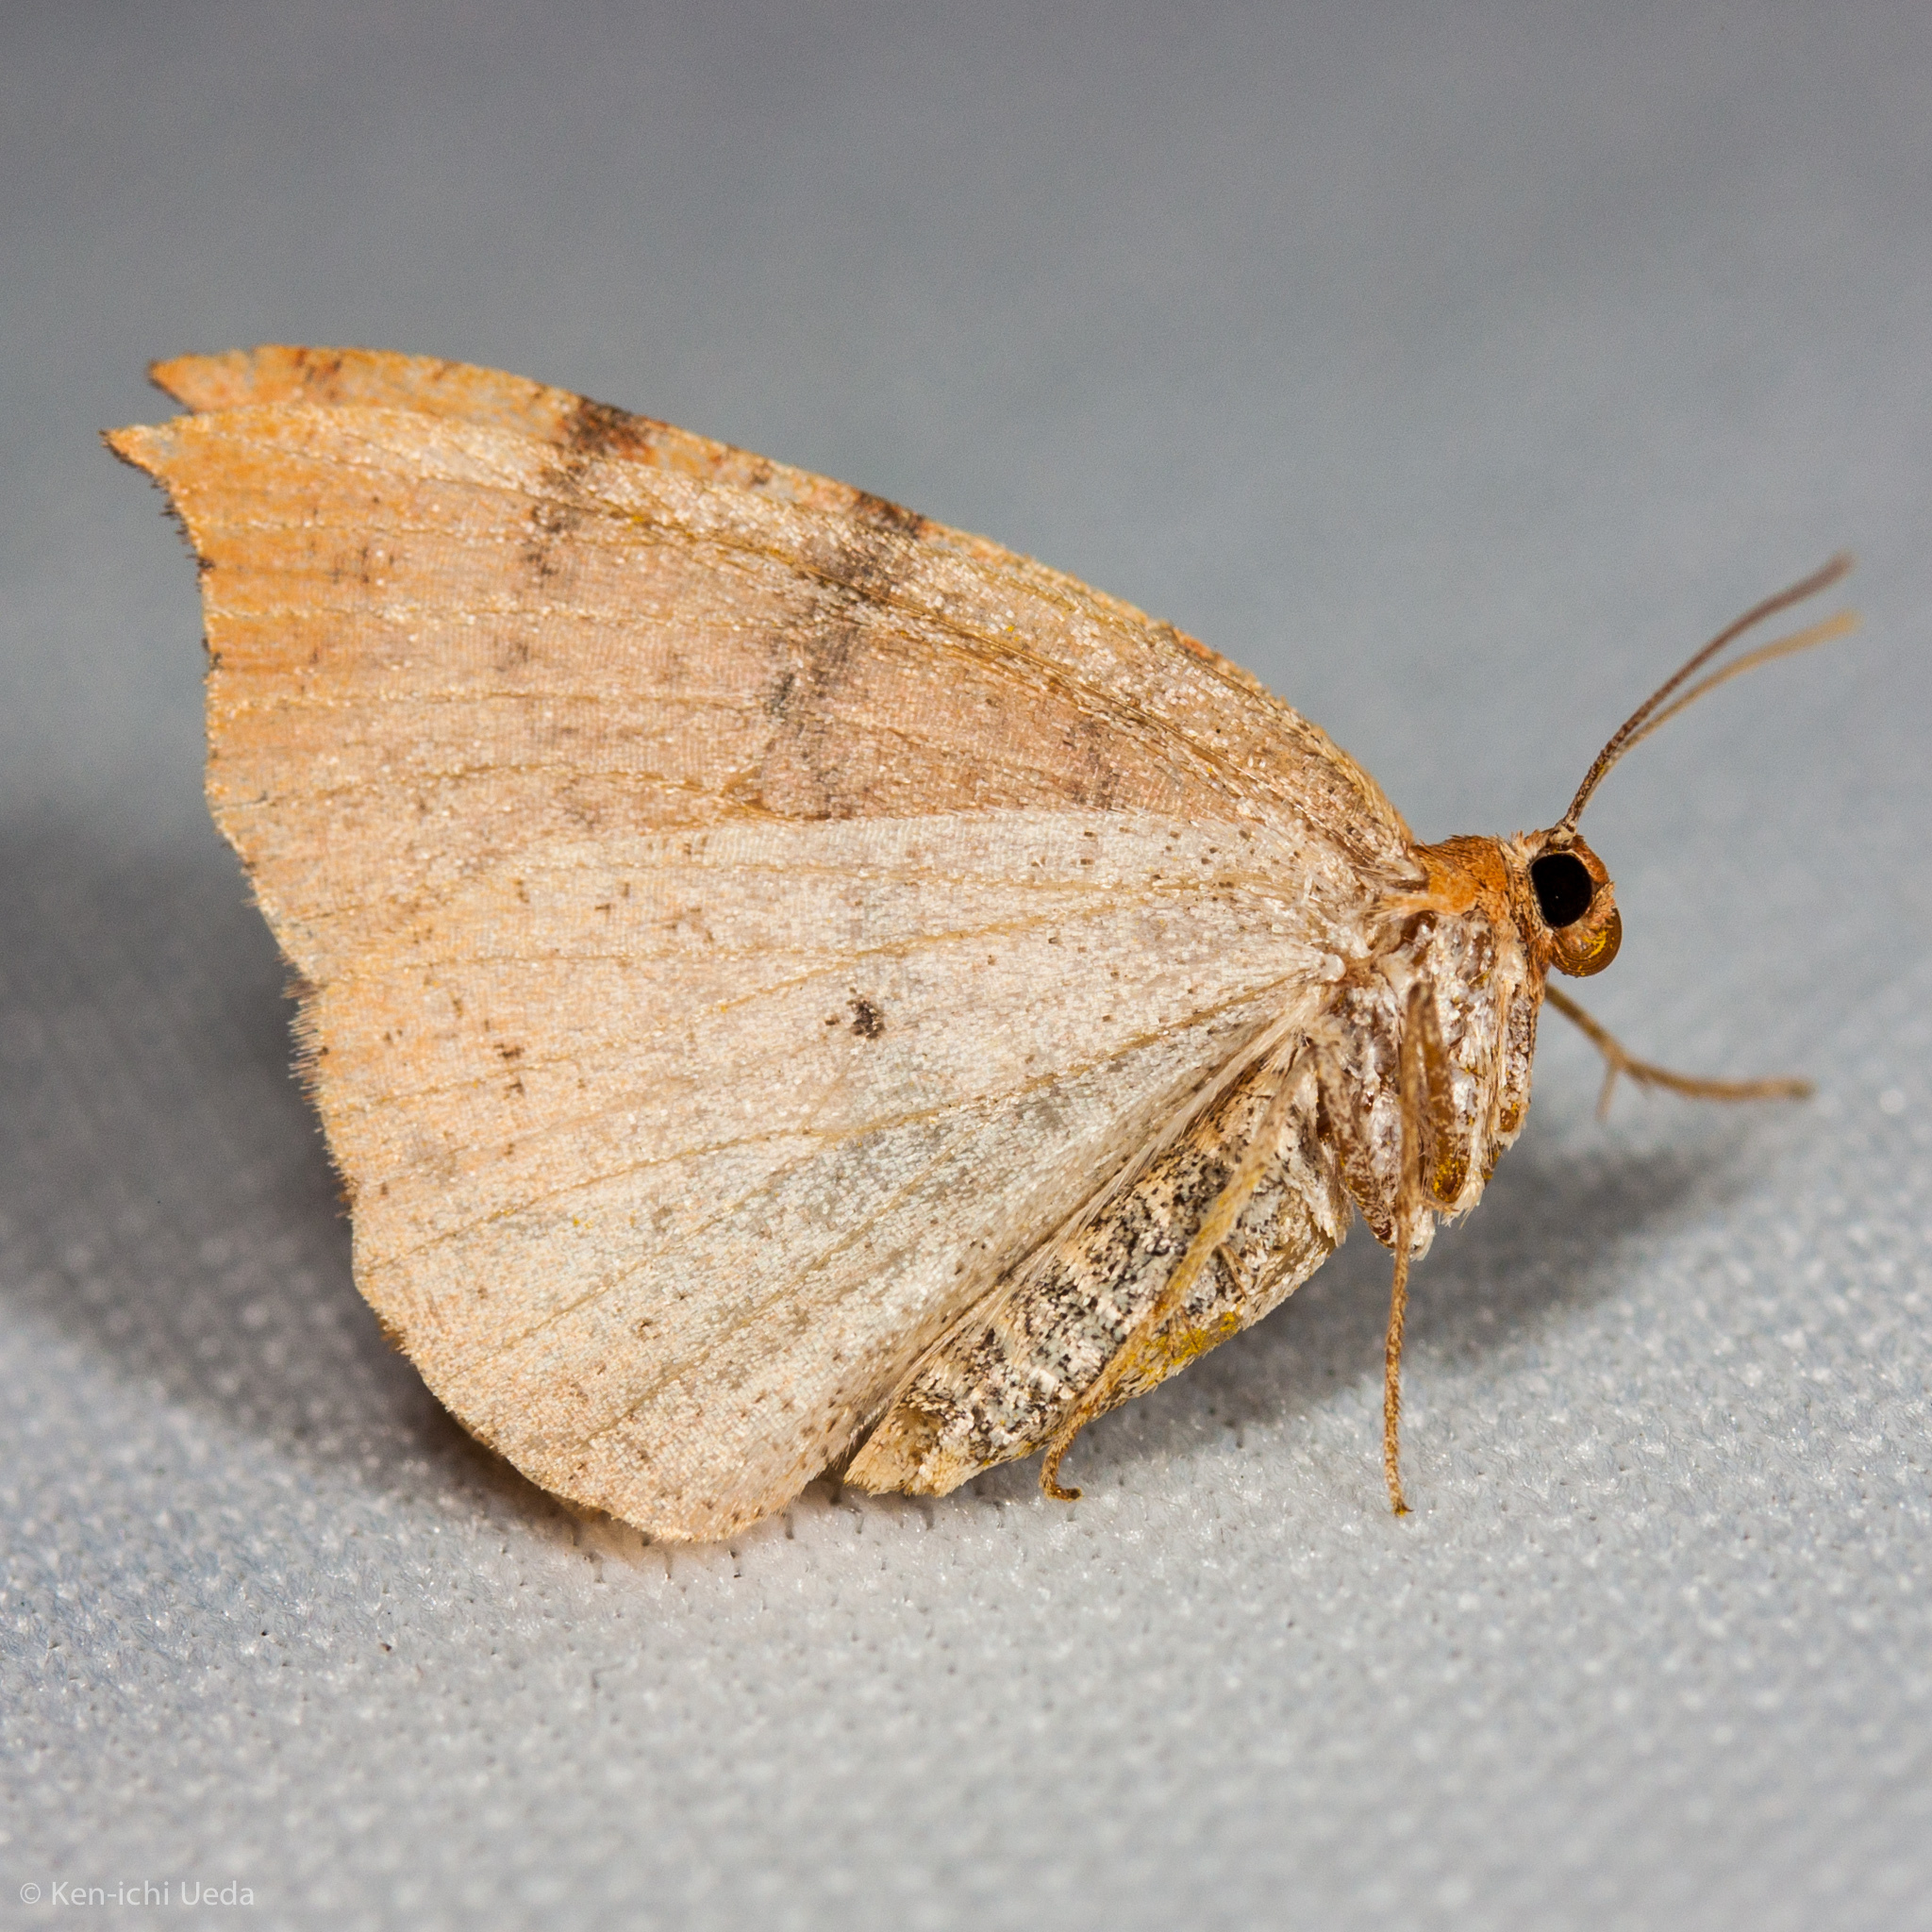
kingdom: Animalia
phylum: Arthropoda
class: Insecta
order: Lepidoptera
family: Geometridae
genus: Drepanulatrix
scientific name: Drepanulatrix falcataria
